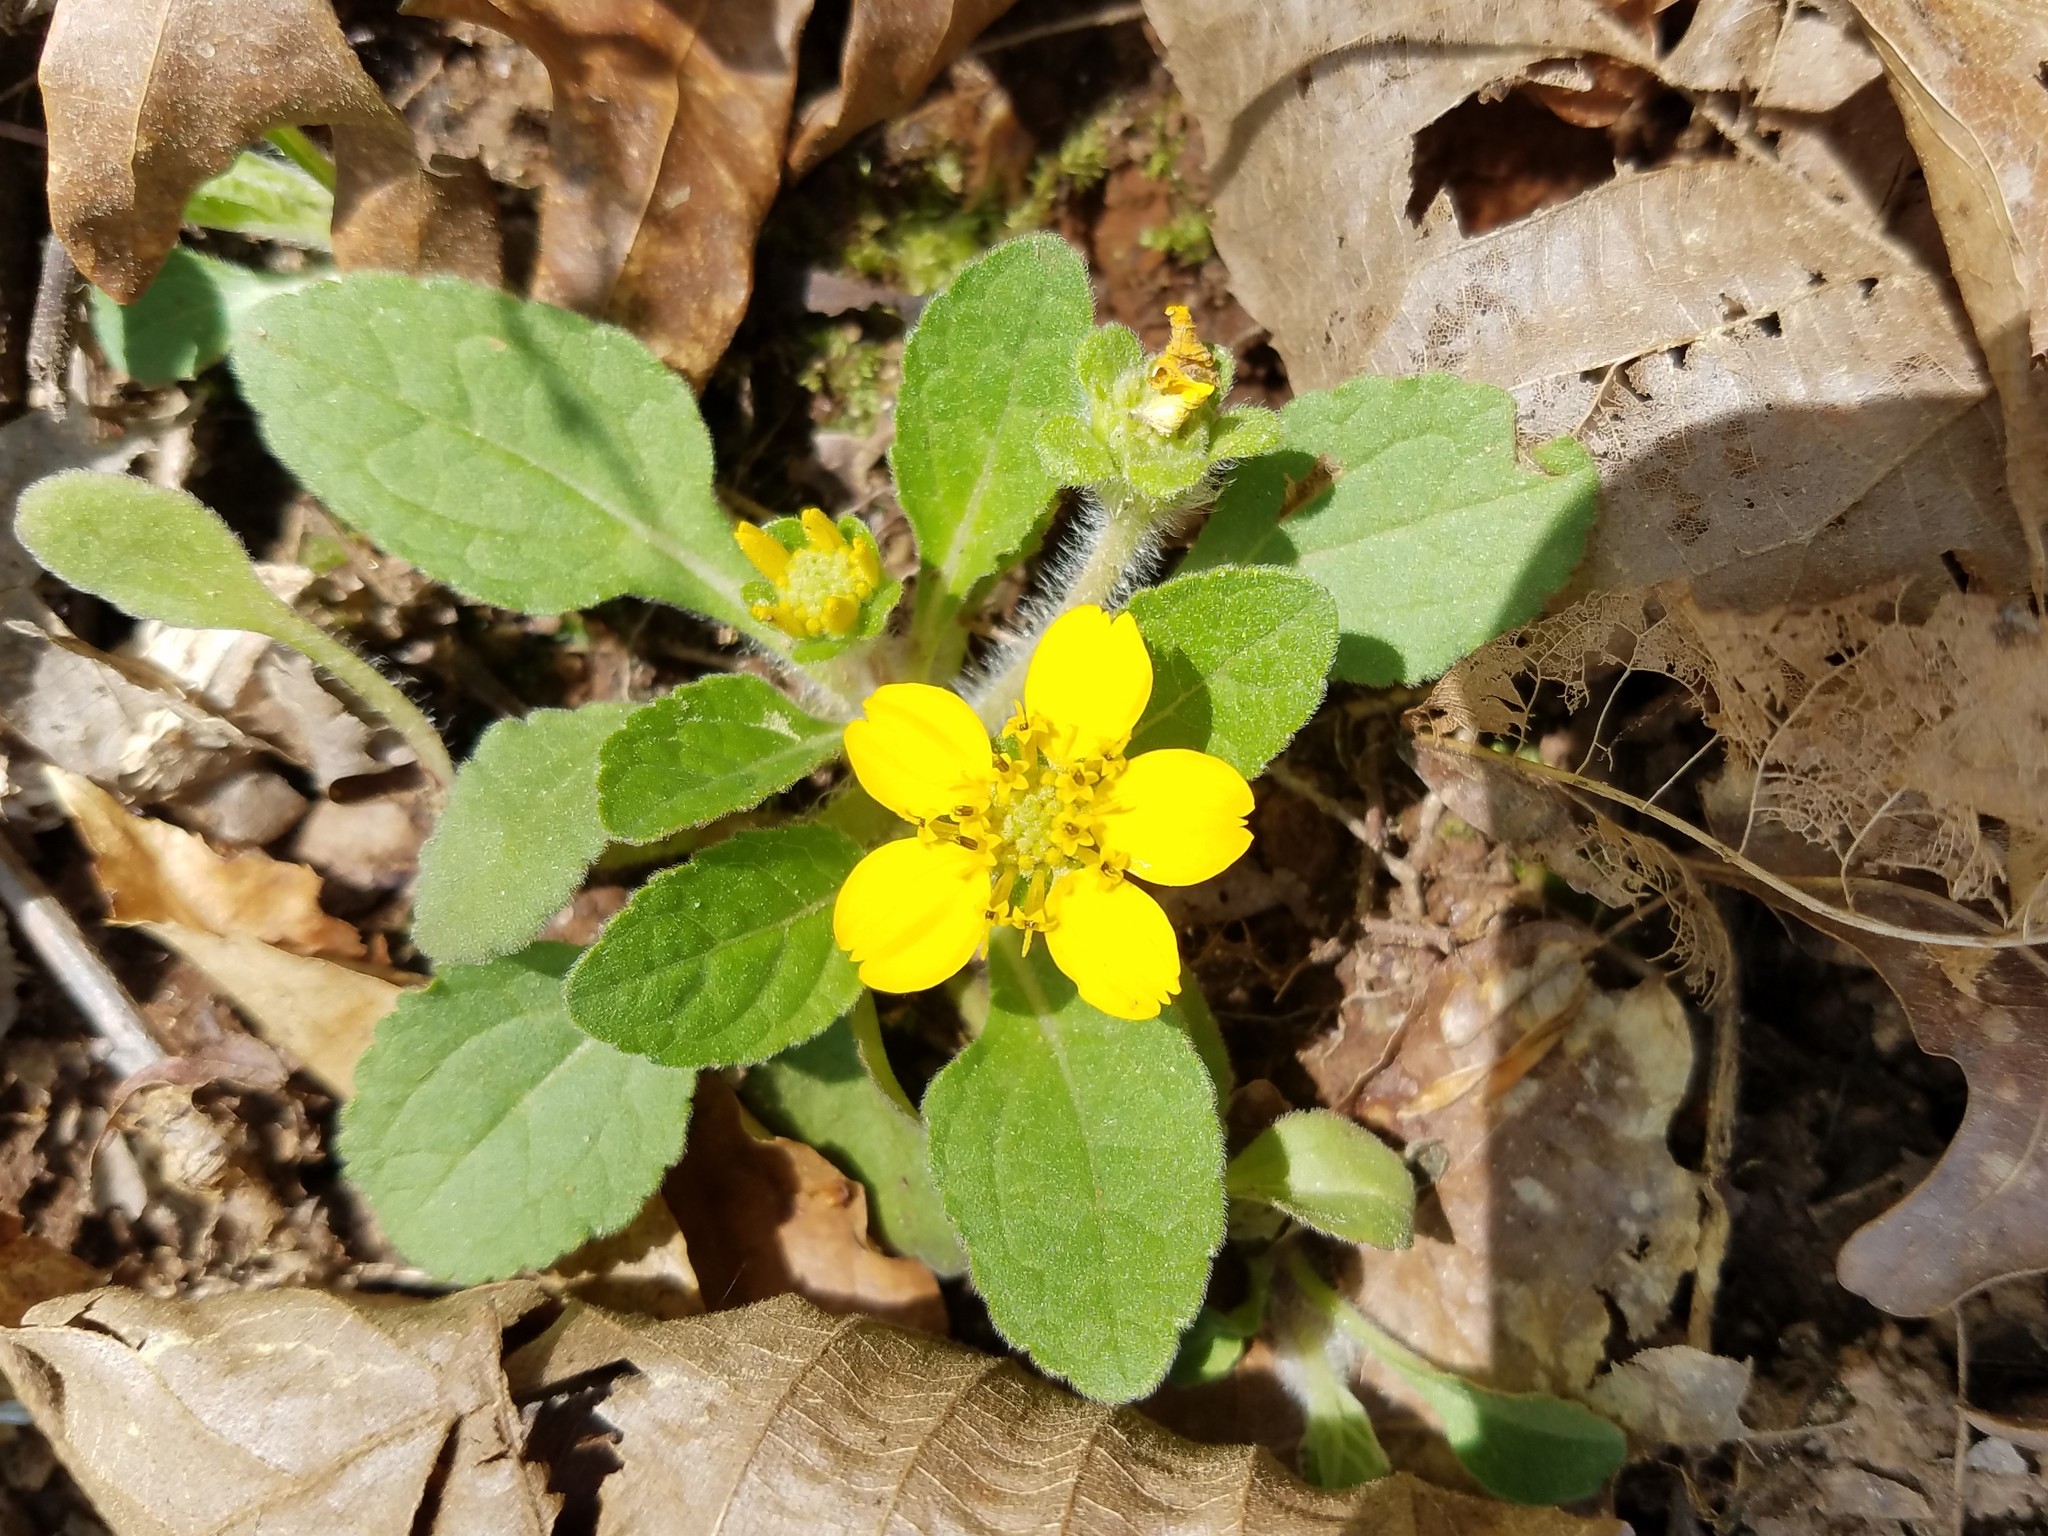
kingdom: Plantae
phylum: Tracheophyta
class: Magnoliopsida
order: Asterales
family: Asteraceae
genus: Chrysogonum
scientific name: Chrysogonum virginianum
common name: Golden-knee
